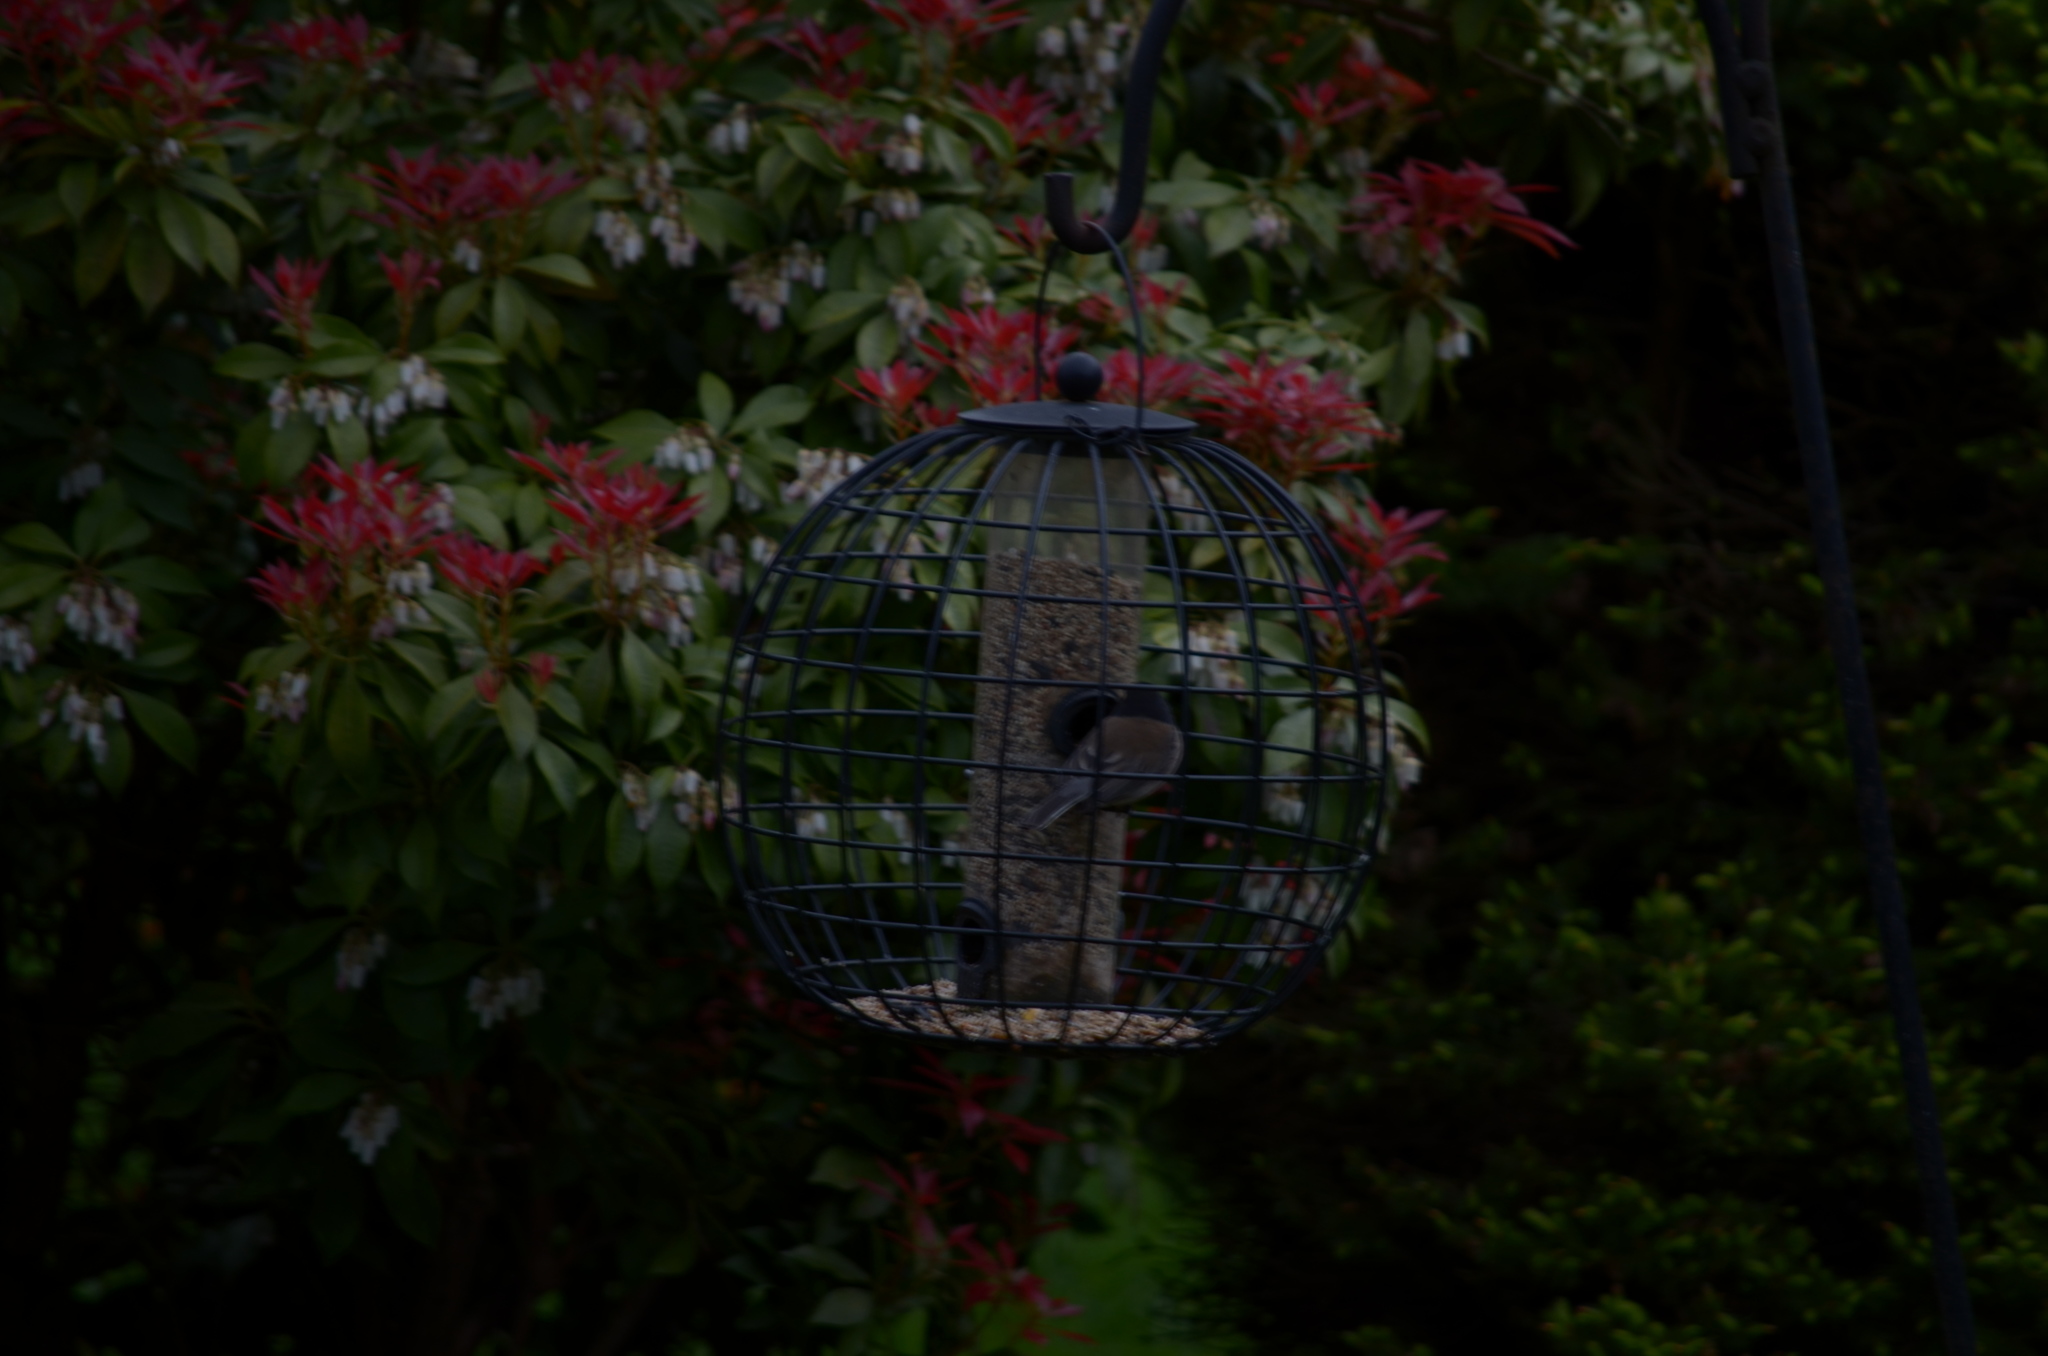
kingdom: Animalia
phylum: Chordata
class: Aves
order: Passeriformes
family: Passerellidae
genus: Junco
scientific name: Junco hyemalis
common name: Dark-eyed junco
